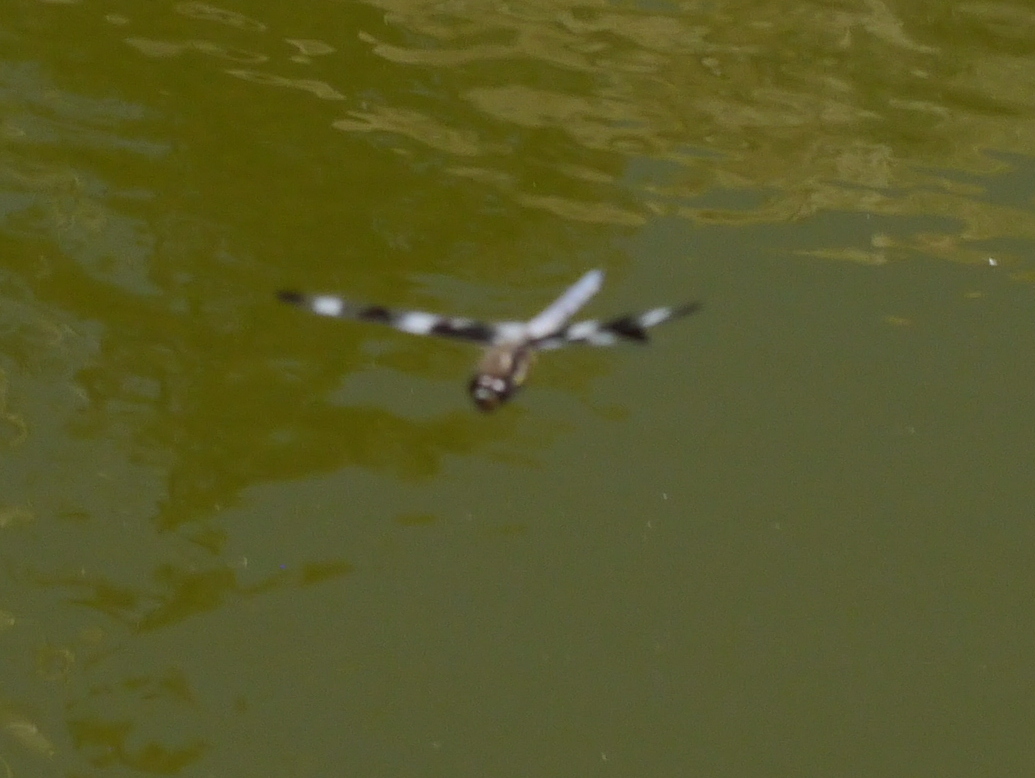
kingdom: Animalia
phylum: Arthropoda
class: Insecta
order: Odonata
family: Libellulidae
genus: Libellula
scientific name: Libellula pulchella
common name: Twelve-spotted skimmer
